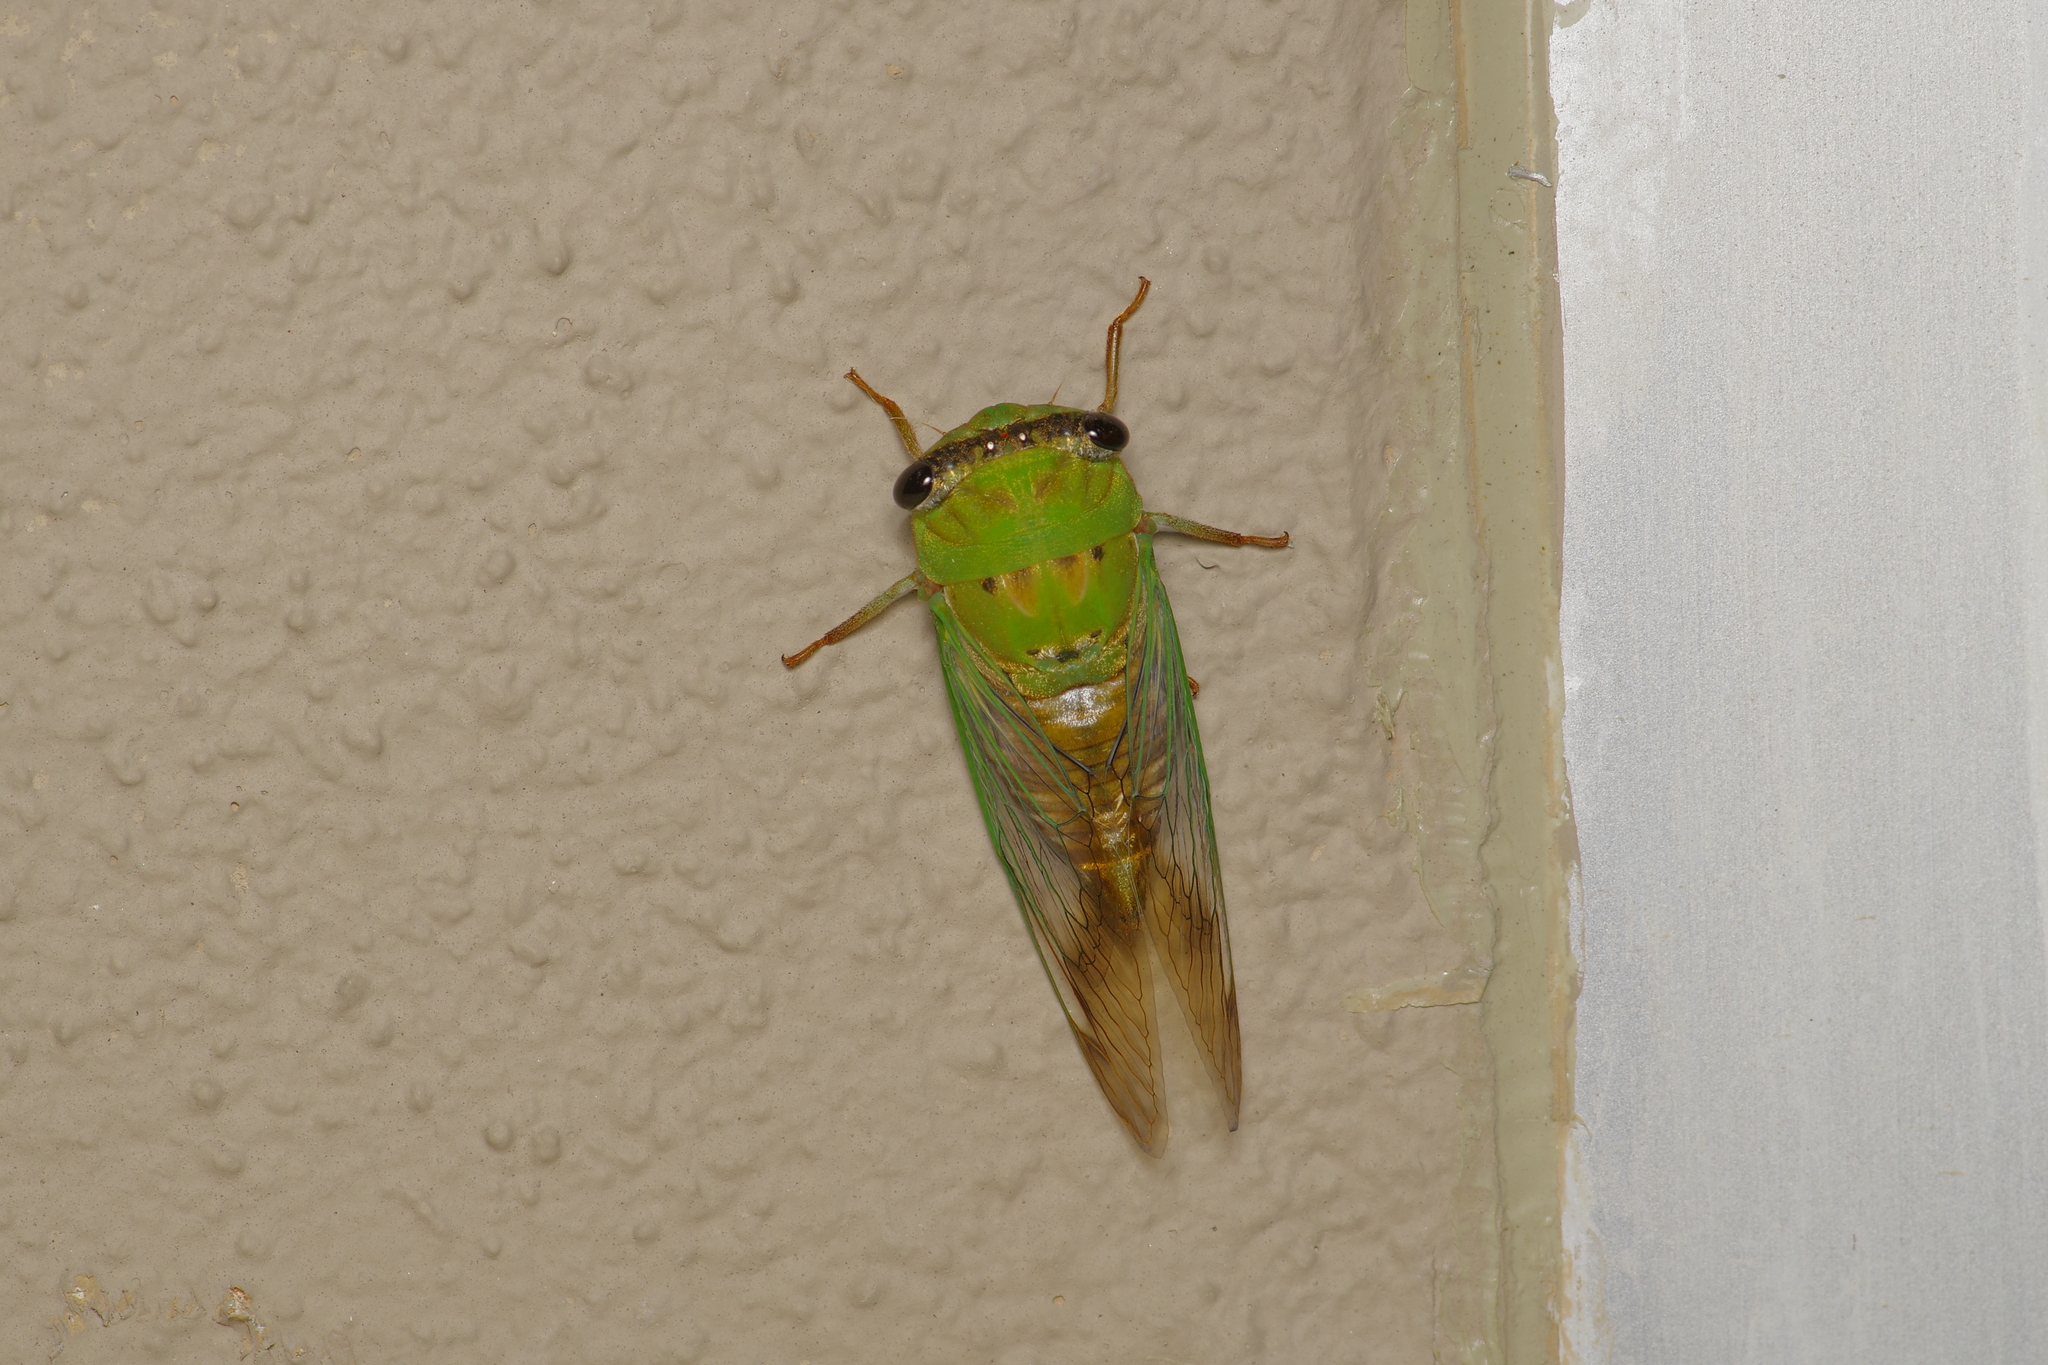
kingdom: Animalia
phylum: Arthropoda
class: Insecta
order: Hemiptera
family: Cicadidae
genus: Neotibicen
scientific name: Neotibicen superbus
